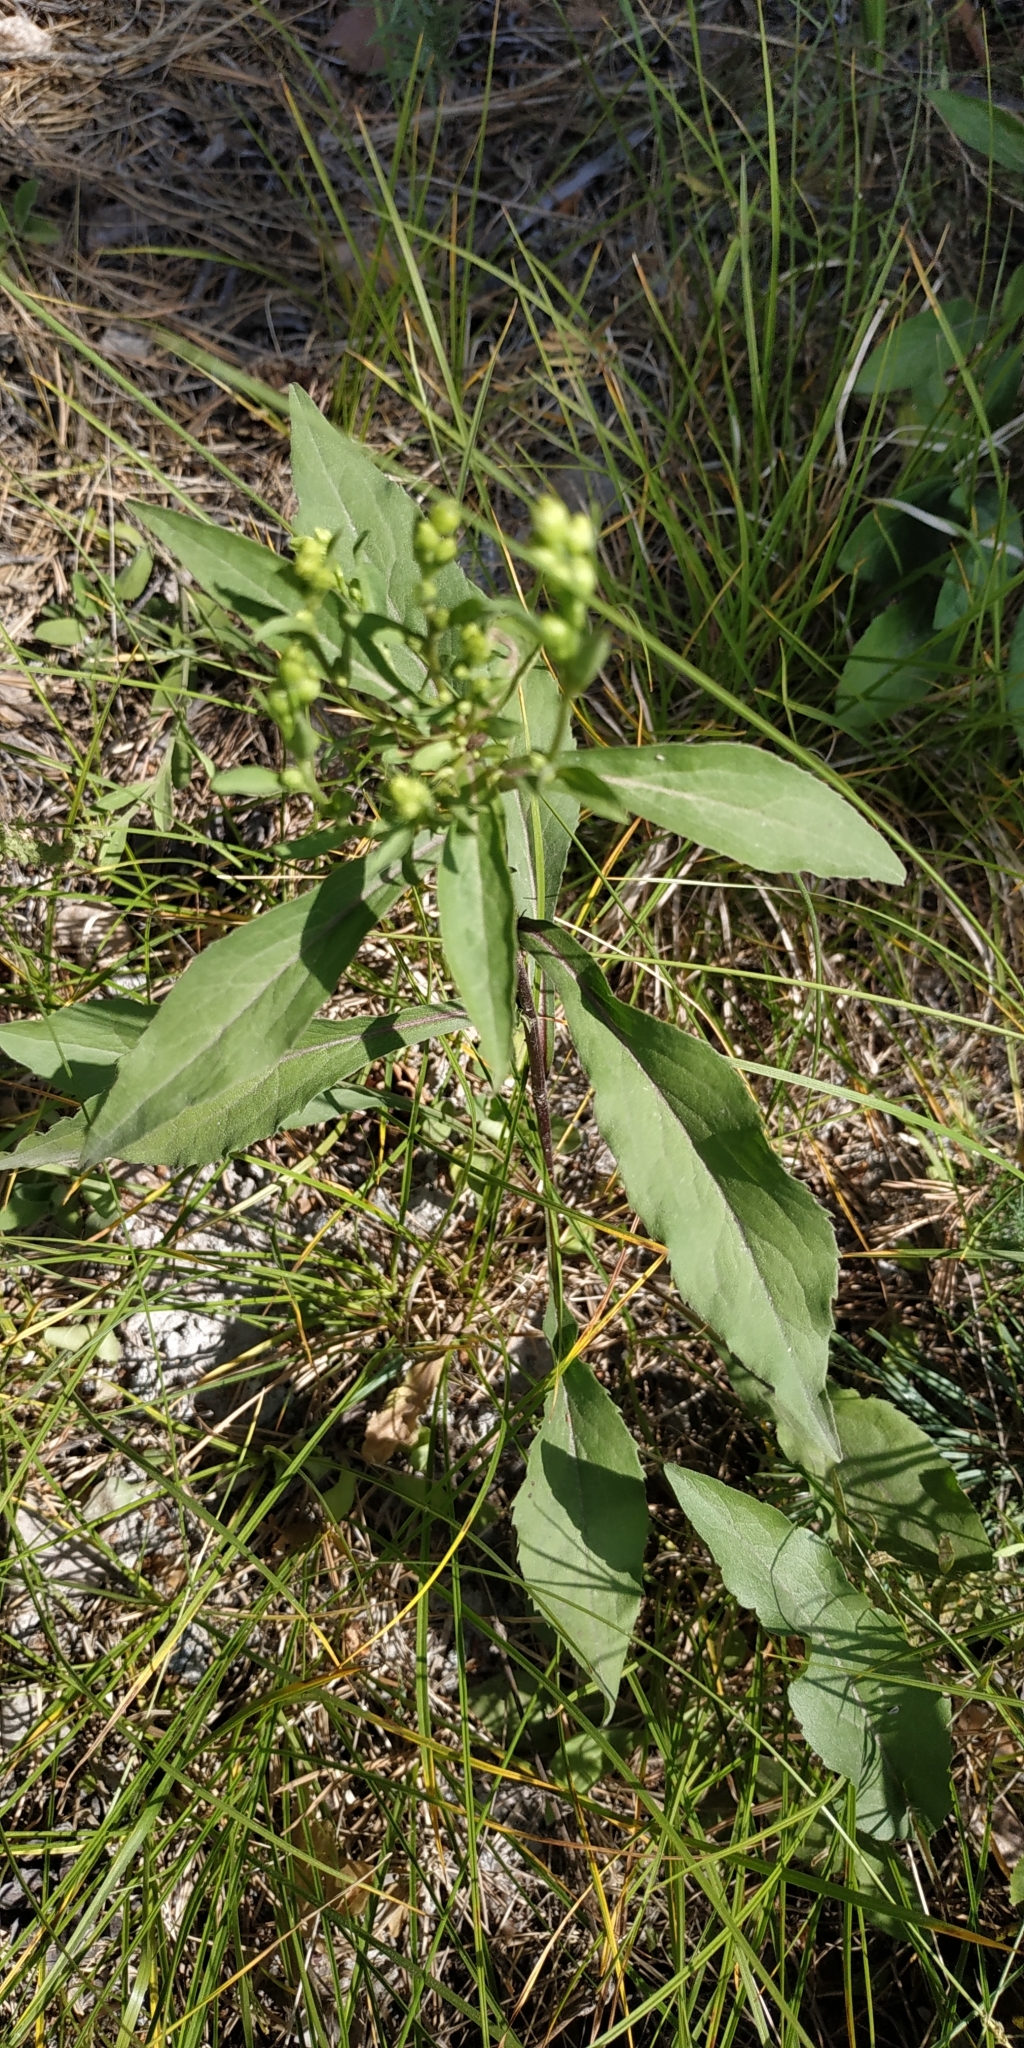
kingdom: Plantae
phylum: Tracheophyta
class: Magnoliopsida
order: Asterales
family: Asteraceae
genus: Solidago
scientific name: Solidago virgaurea
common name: Goldenrod
